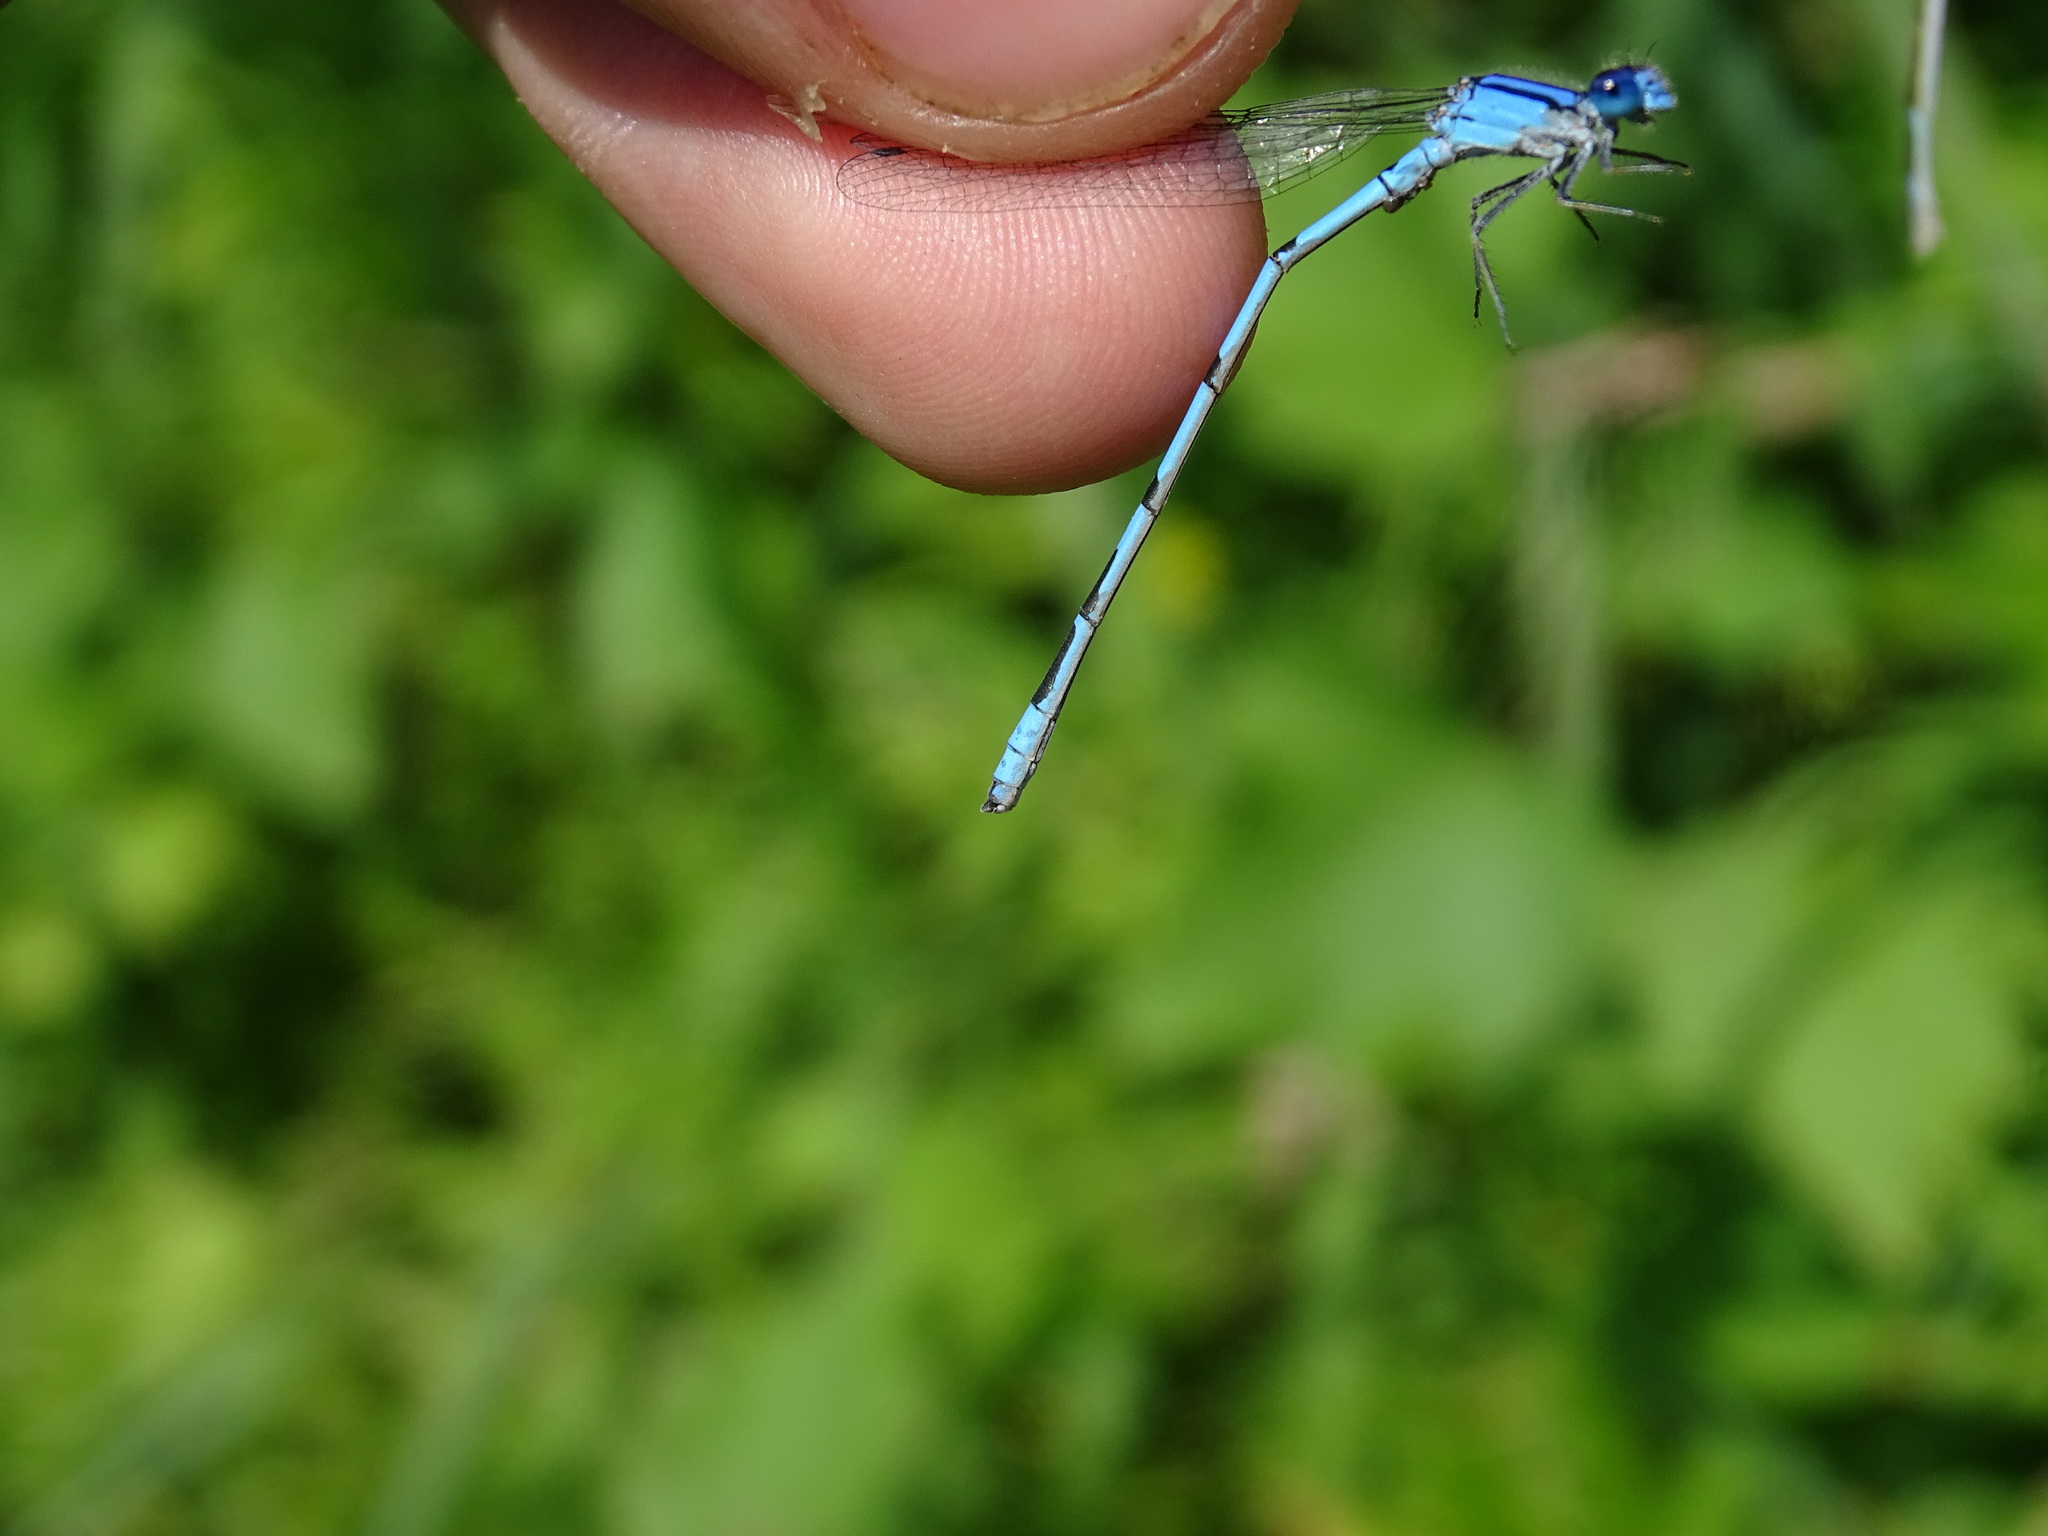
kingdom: Animalia
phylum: Arthropoda
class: Insecta
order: Odonata
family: Coenagrionidae
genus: Enallagma
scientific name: Enallagma civile
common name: Damselfly
